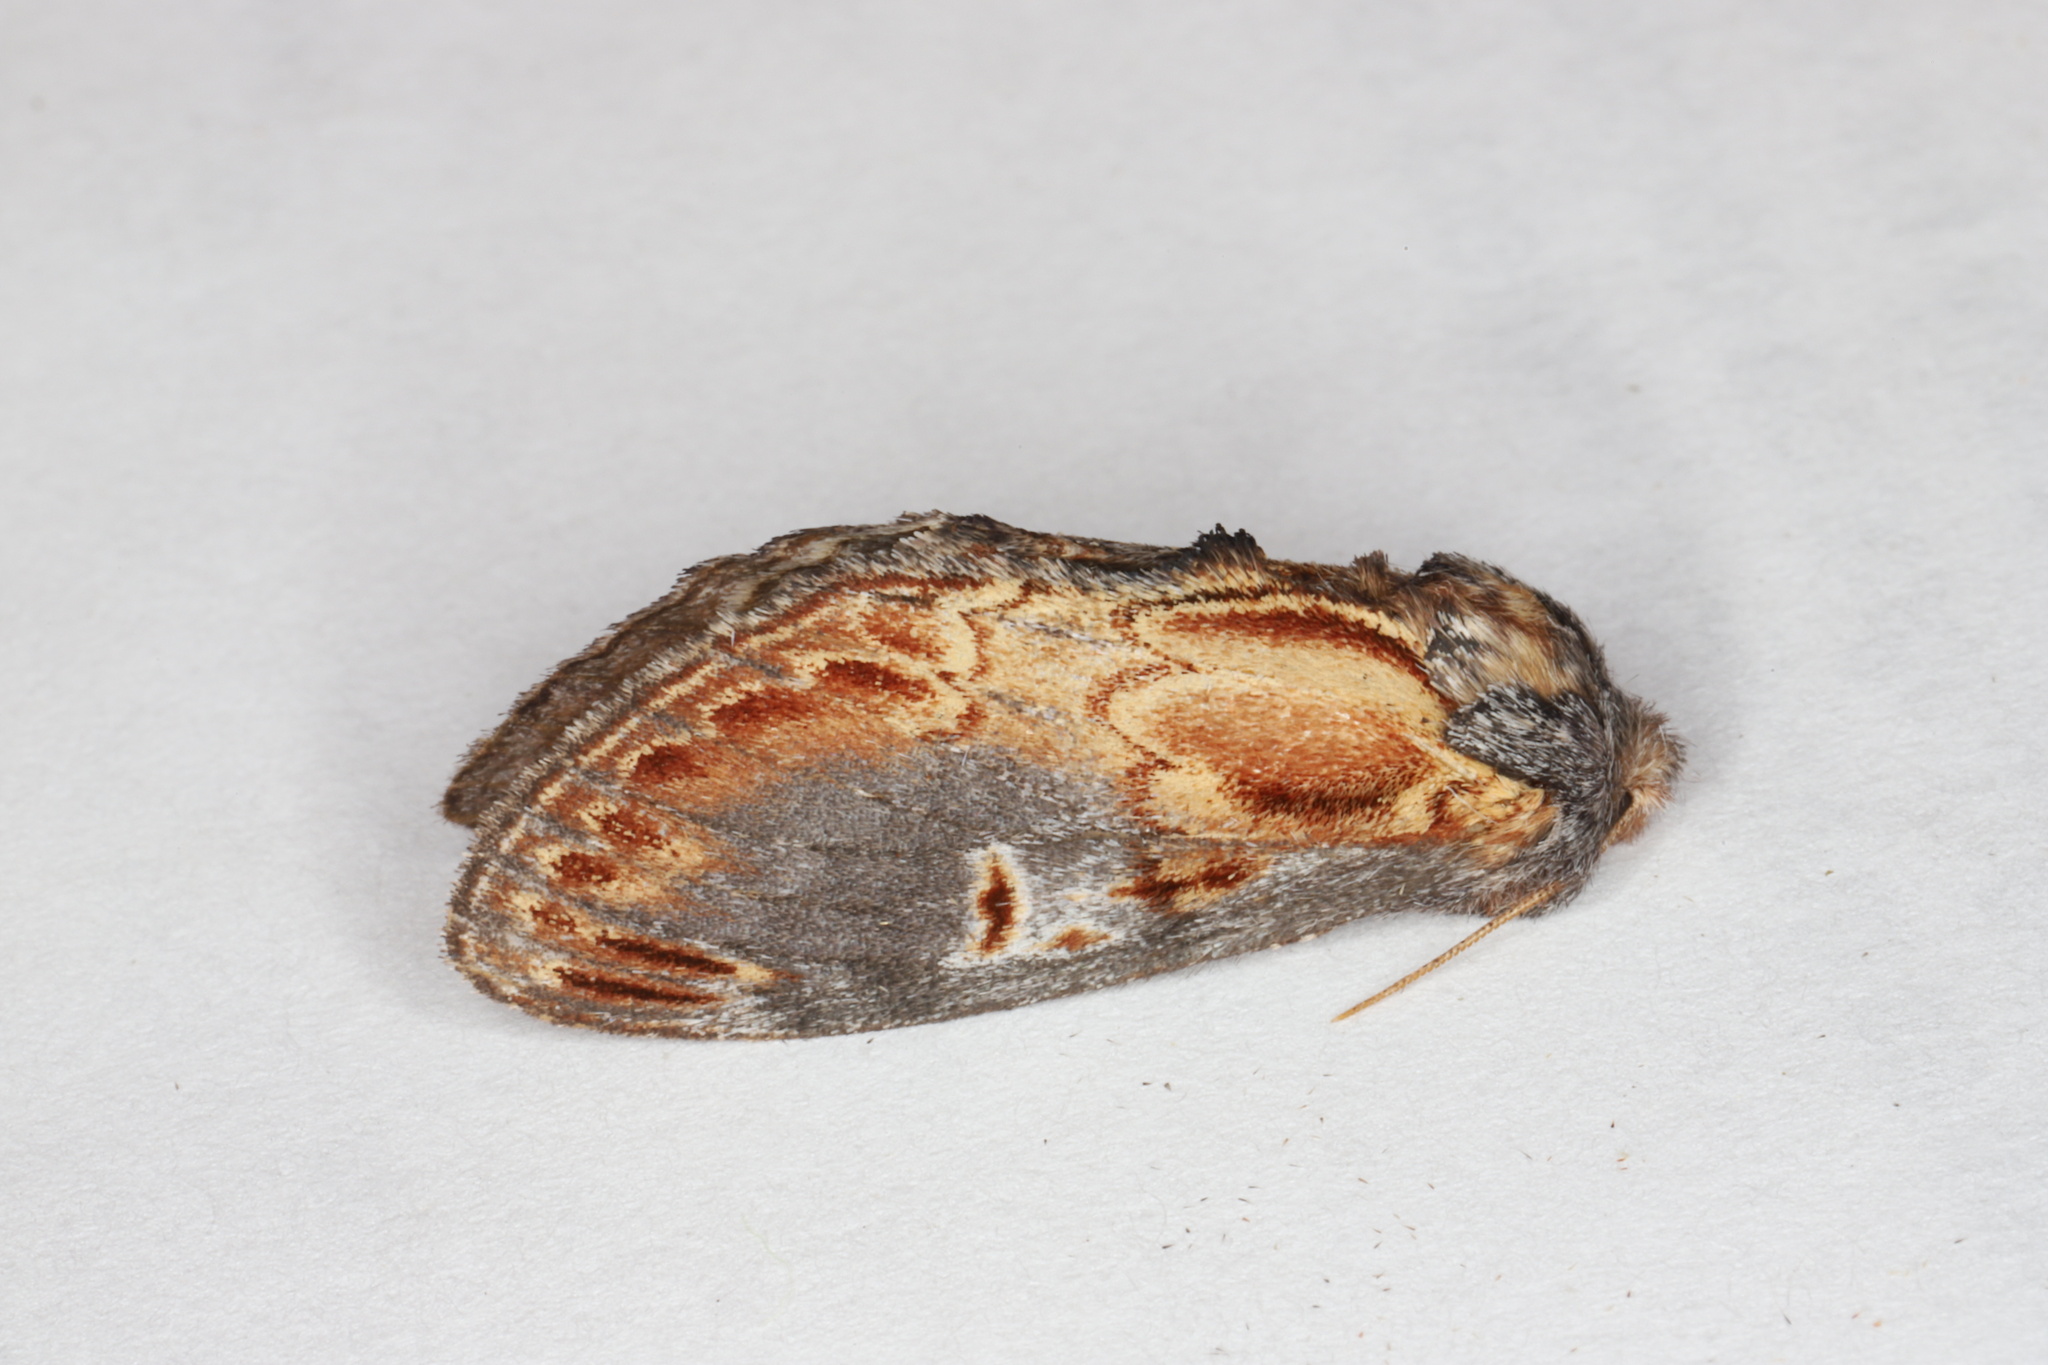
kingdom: Animalia
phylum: Arthropoda
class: Insecta
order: Lepidoptera
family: Notodontidae
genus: Notodonta
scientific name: Notodonta scitipennis
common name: Finned-willow prominent moth
